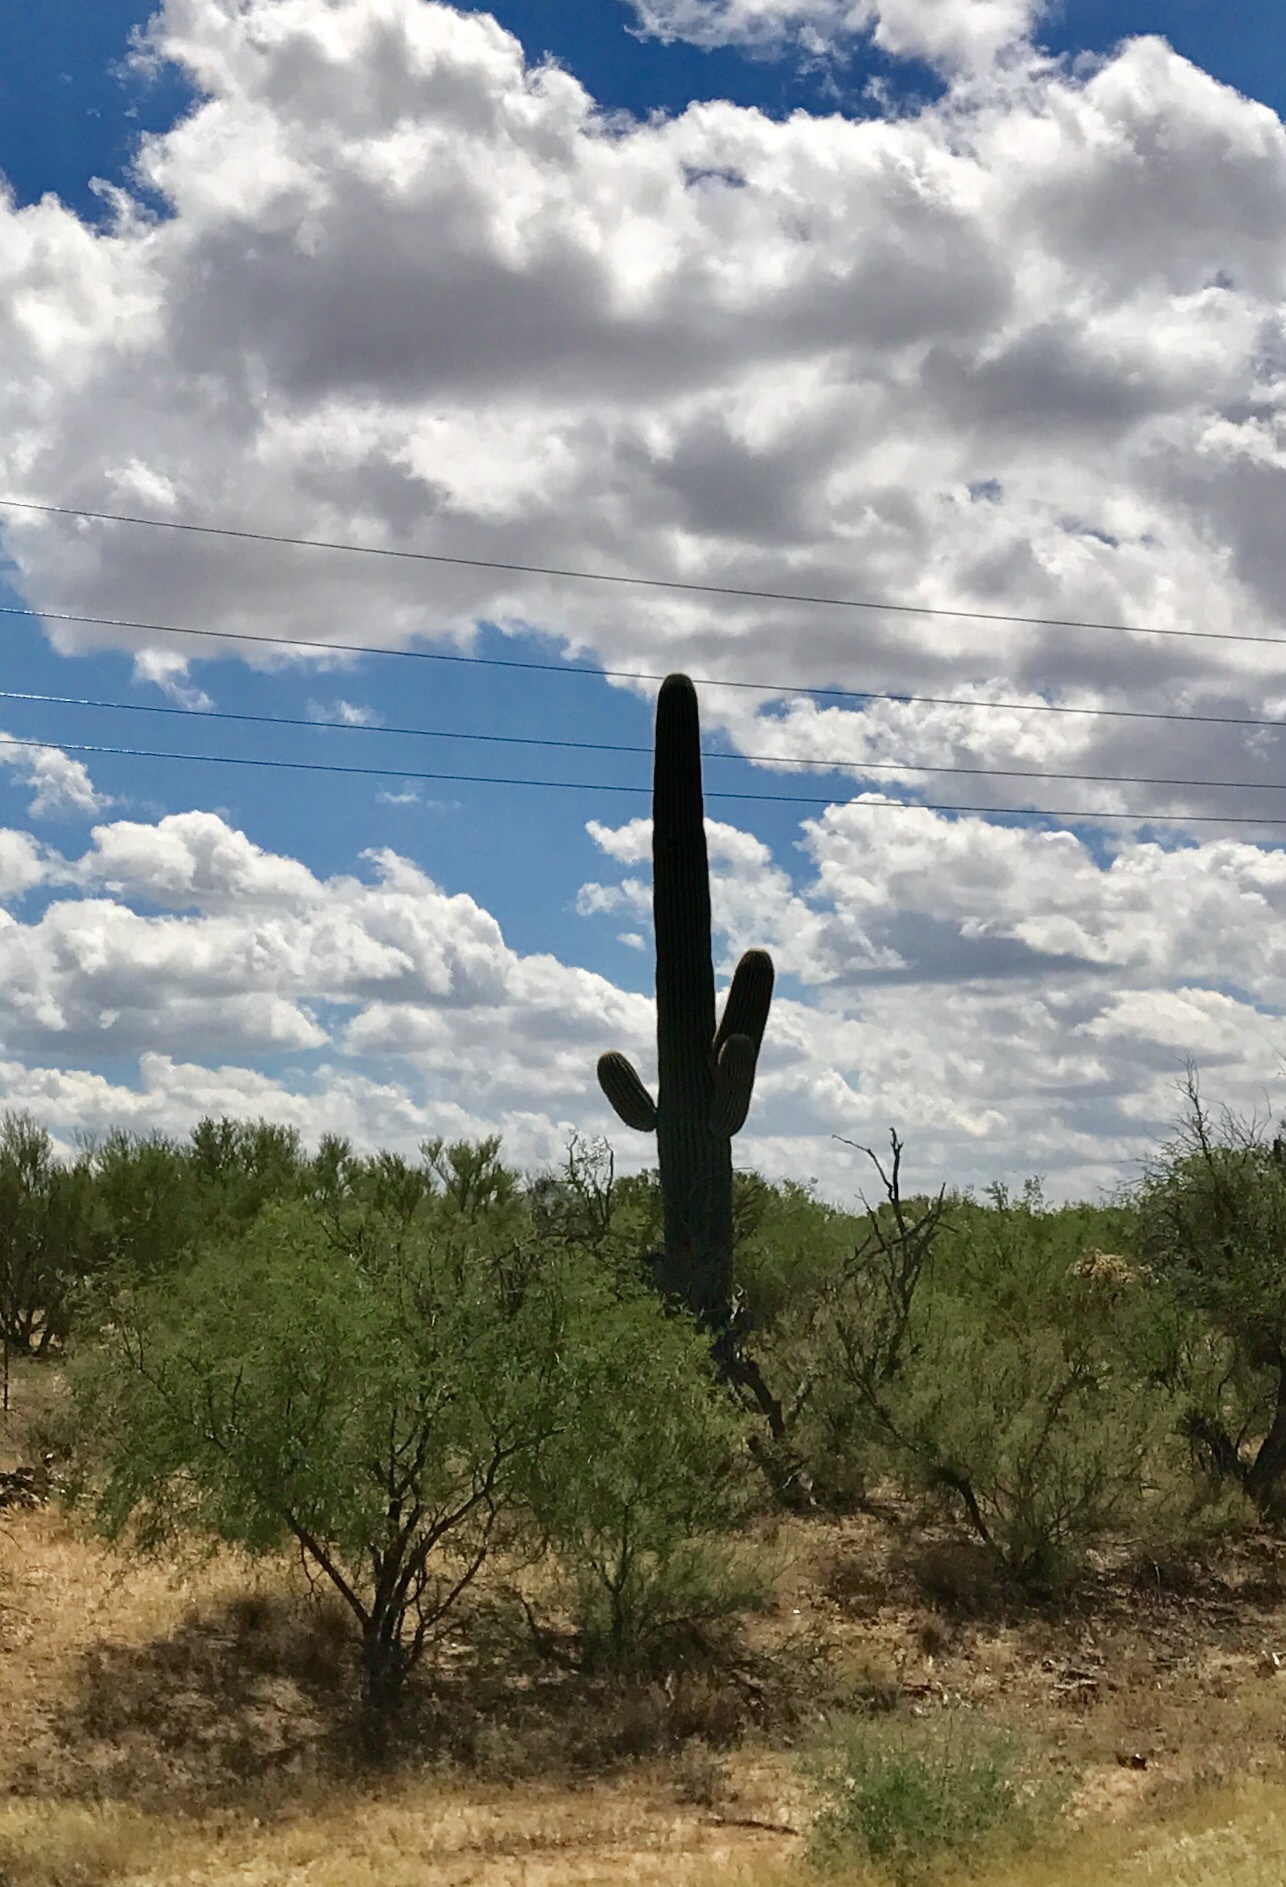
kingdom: Plantae
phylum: Tracheophyta
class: Magnoliopsida
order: Caryophyllales
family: Cactaceae
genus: Carnegiea
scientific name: Carnegiea gigantea
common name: Saguaro
